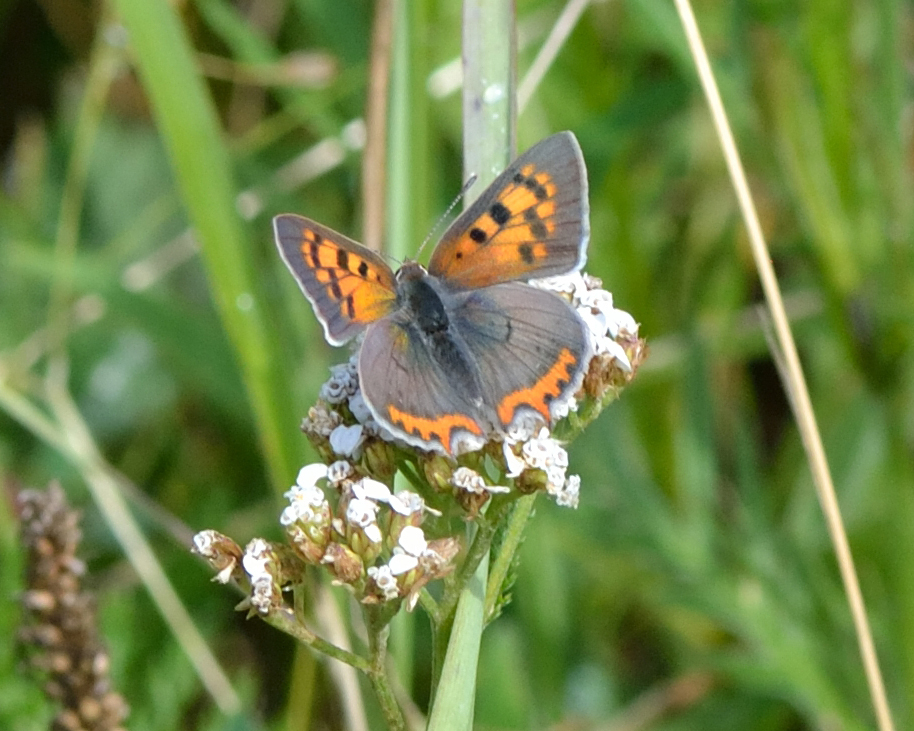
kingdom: Animalia
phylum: Arthropoda
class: Insecta
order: Lepidoptera
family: Lycaenidae
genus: Lycaena
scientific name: Lycaena phlaeas
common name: Small copper
